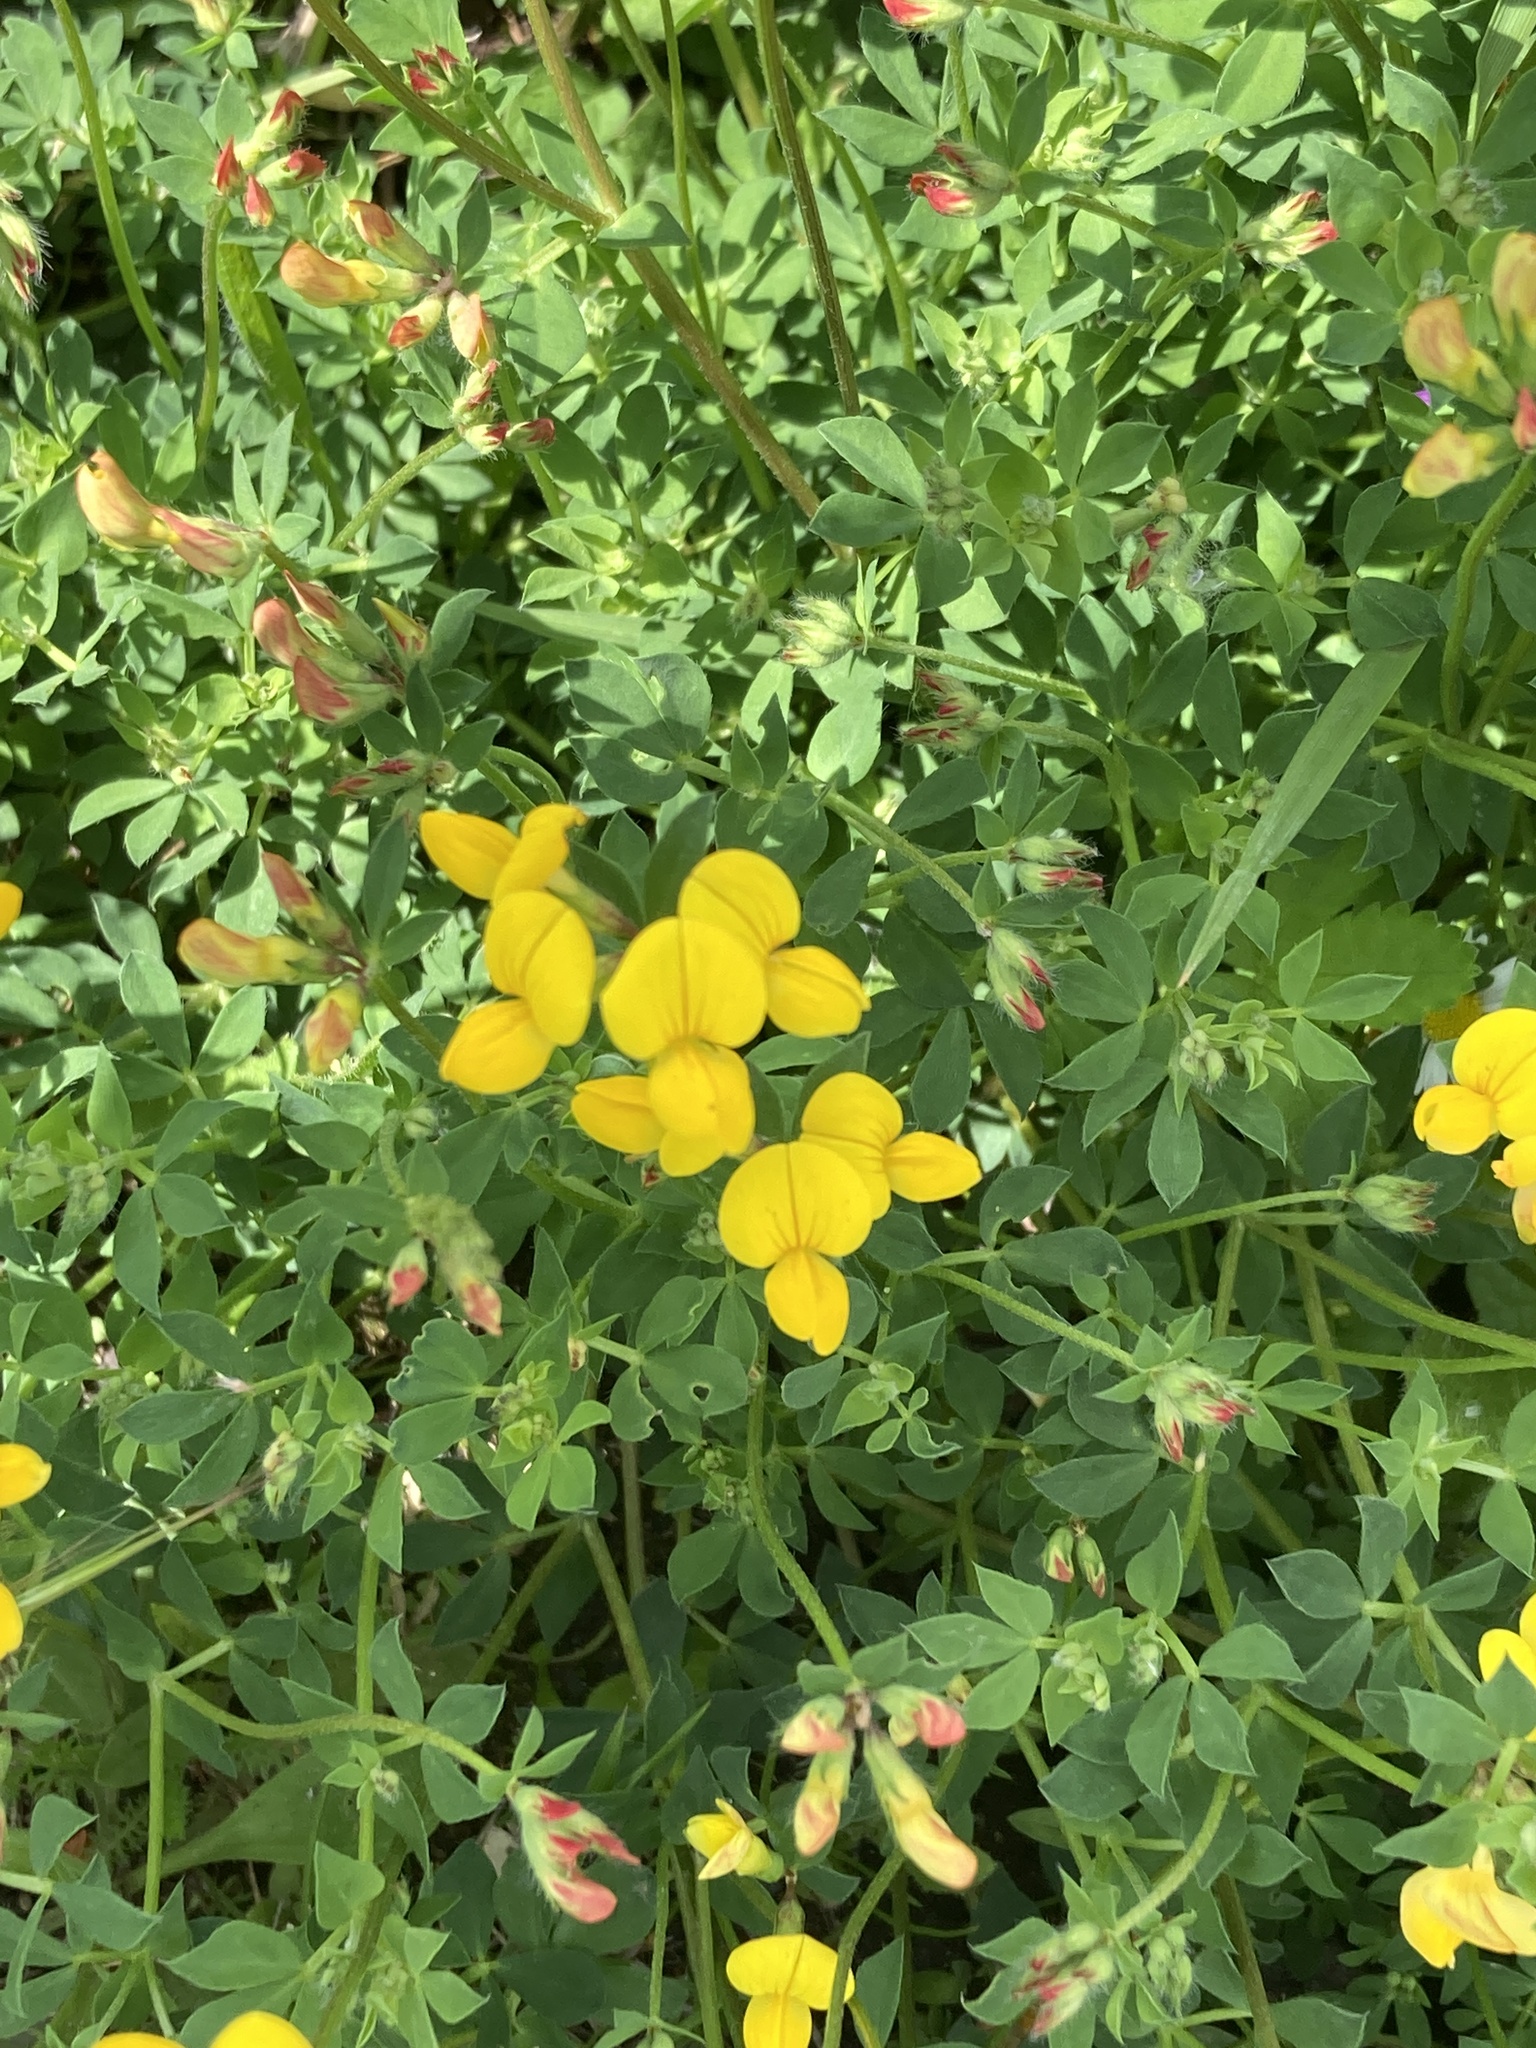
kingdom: Plantae
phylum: Tracheophyta
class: Magnoliopsida
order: Fabales
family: Fabaceae
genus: Lotus
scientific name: Lotus corniculatus
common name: Common bird's-foot-trefoil
